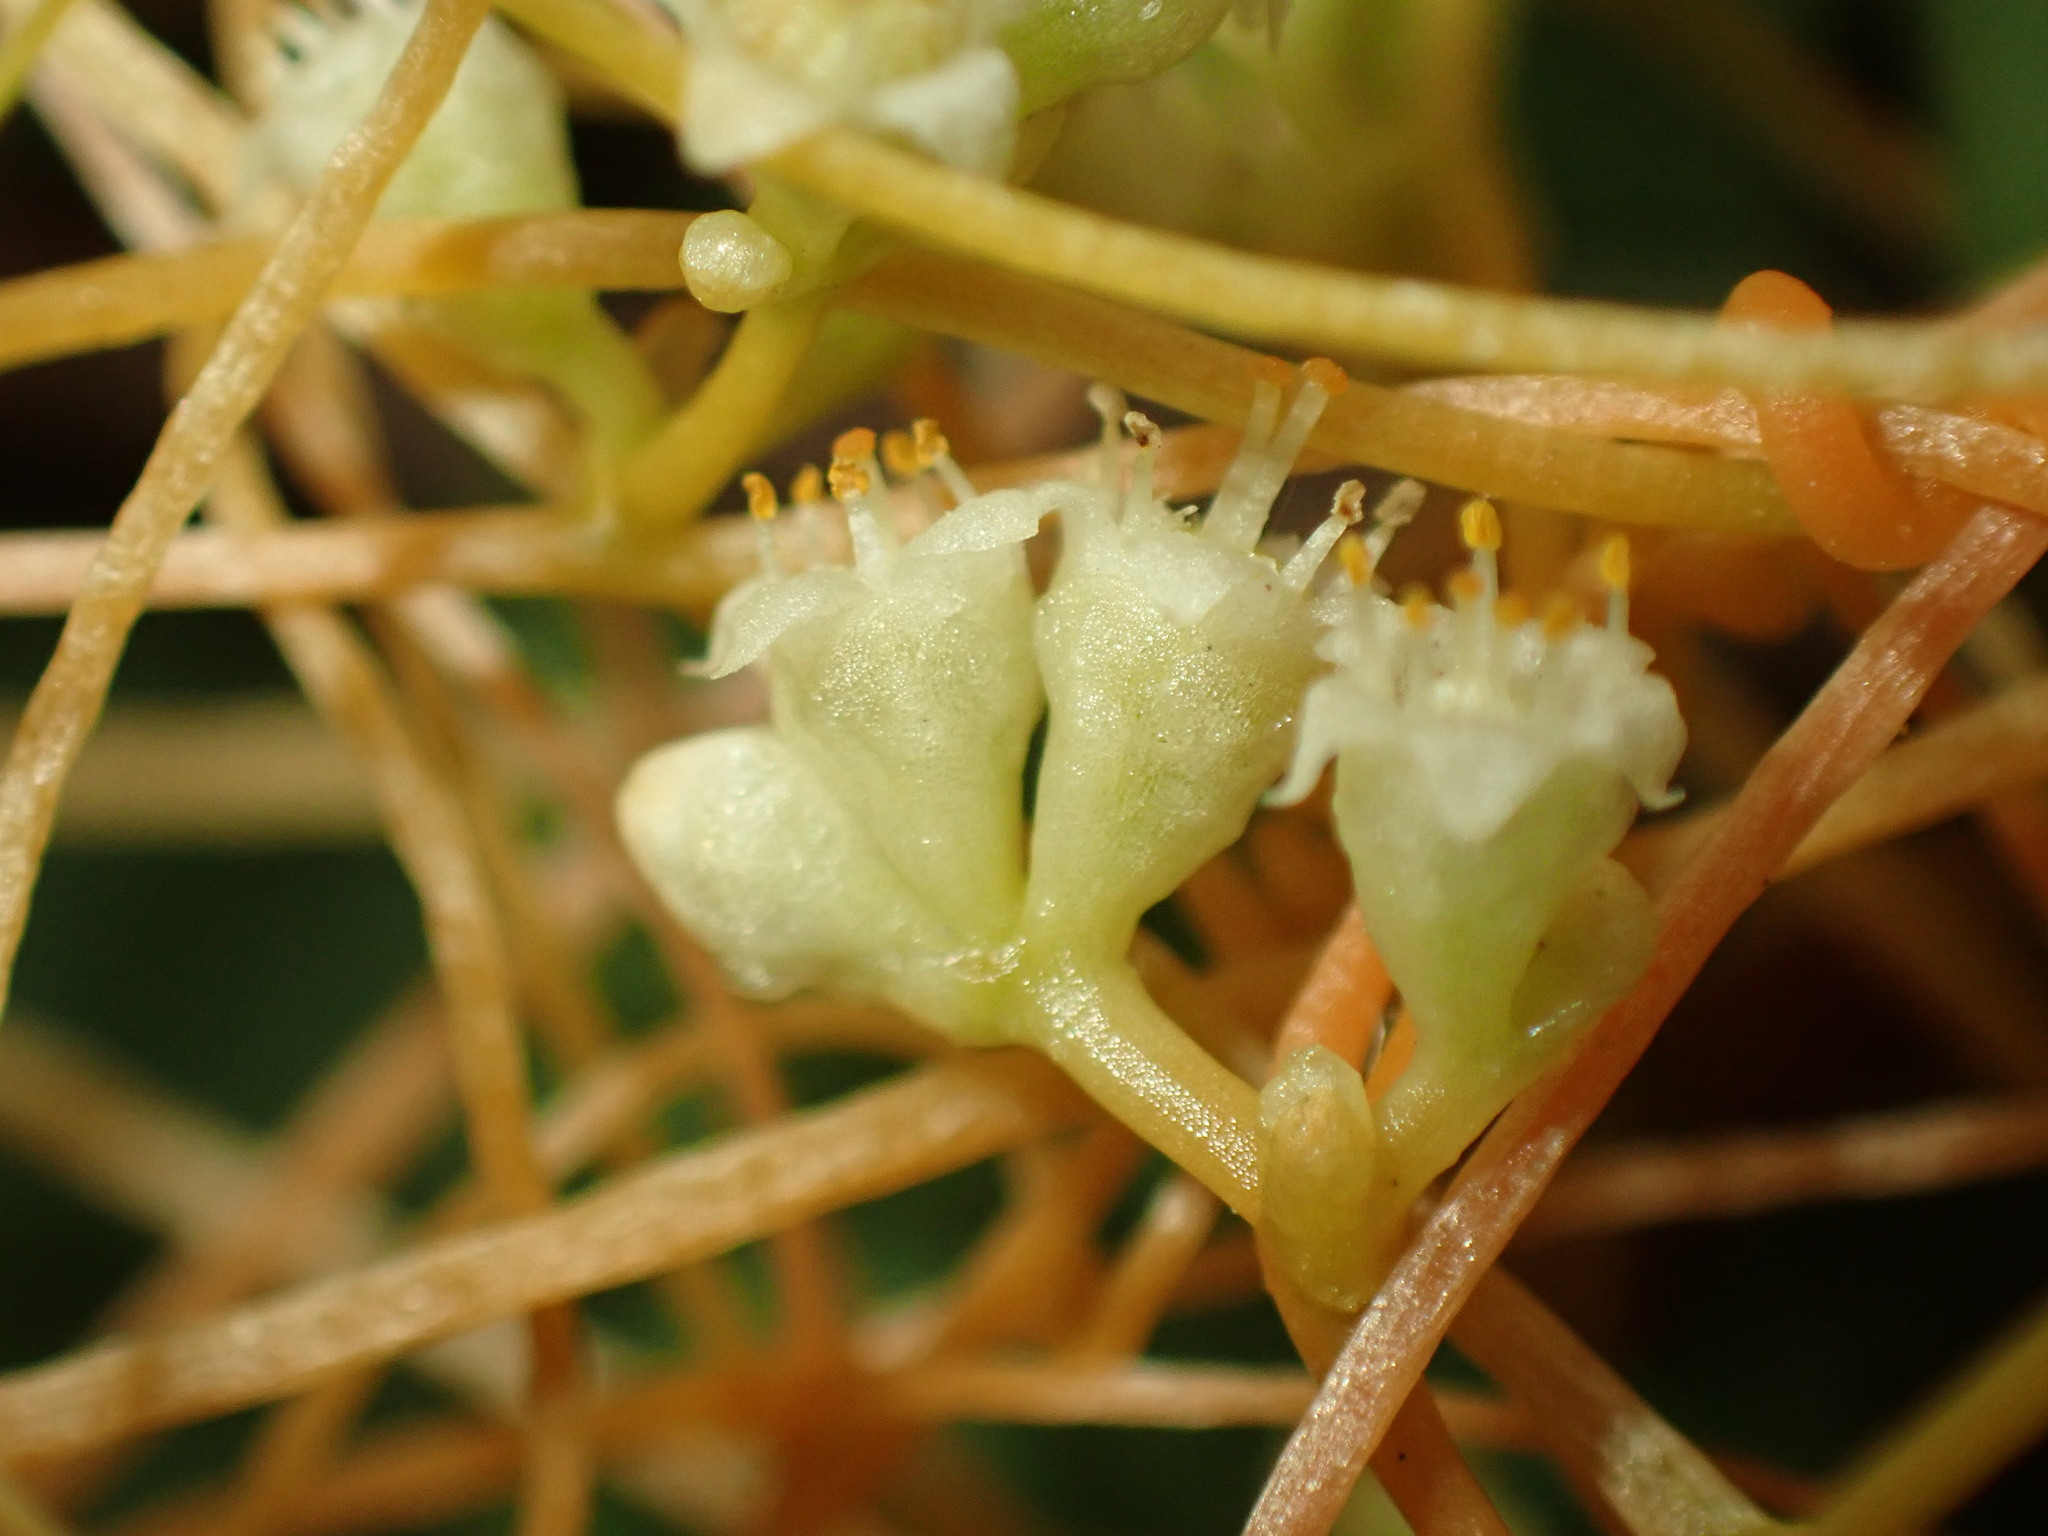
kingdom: Plantae
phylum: Tracheophyta
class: Magnoliopsida
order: Solanales
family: Convolvulaceae
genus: Cuscuta
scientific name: Cuscuta campestris
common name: Yellow dodder
